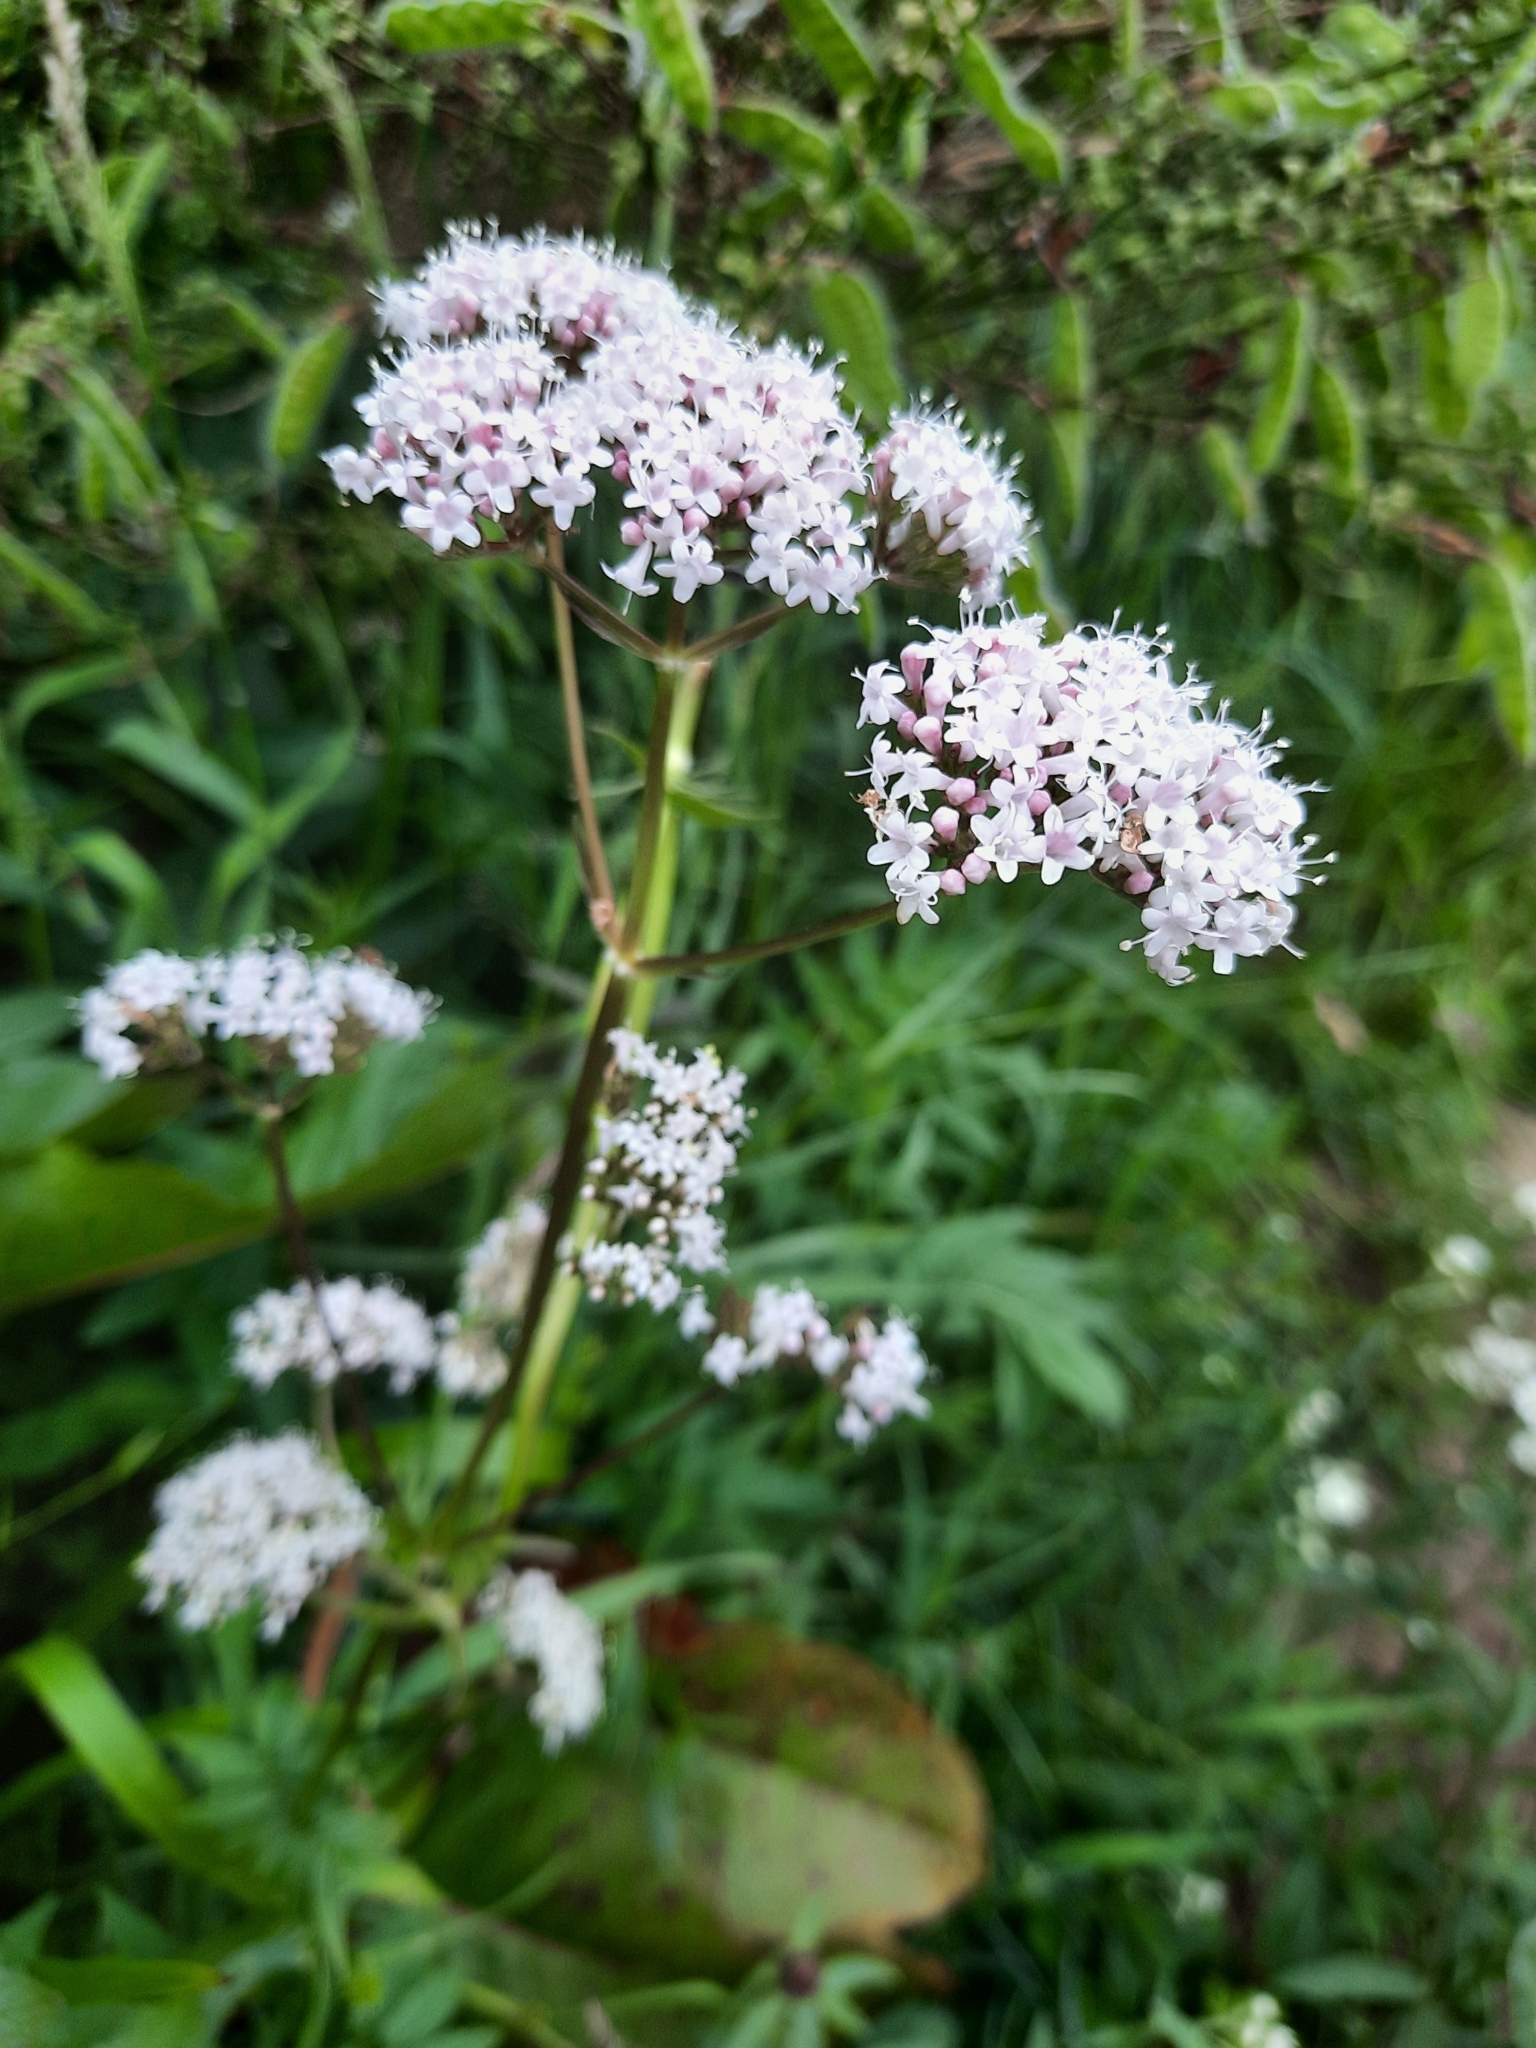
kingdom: Plantae
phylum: Tracheophyta
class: Magnoliopsida
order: Dipsacales
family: Caprifoliaceae
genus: Valeriana
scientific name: Valeriana officinalis
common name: Common valerian
